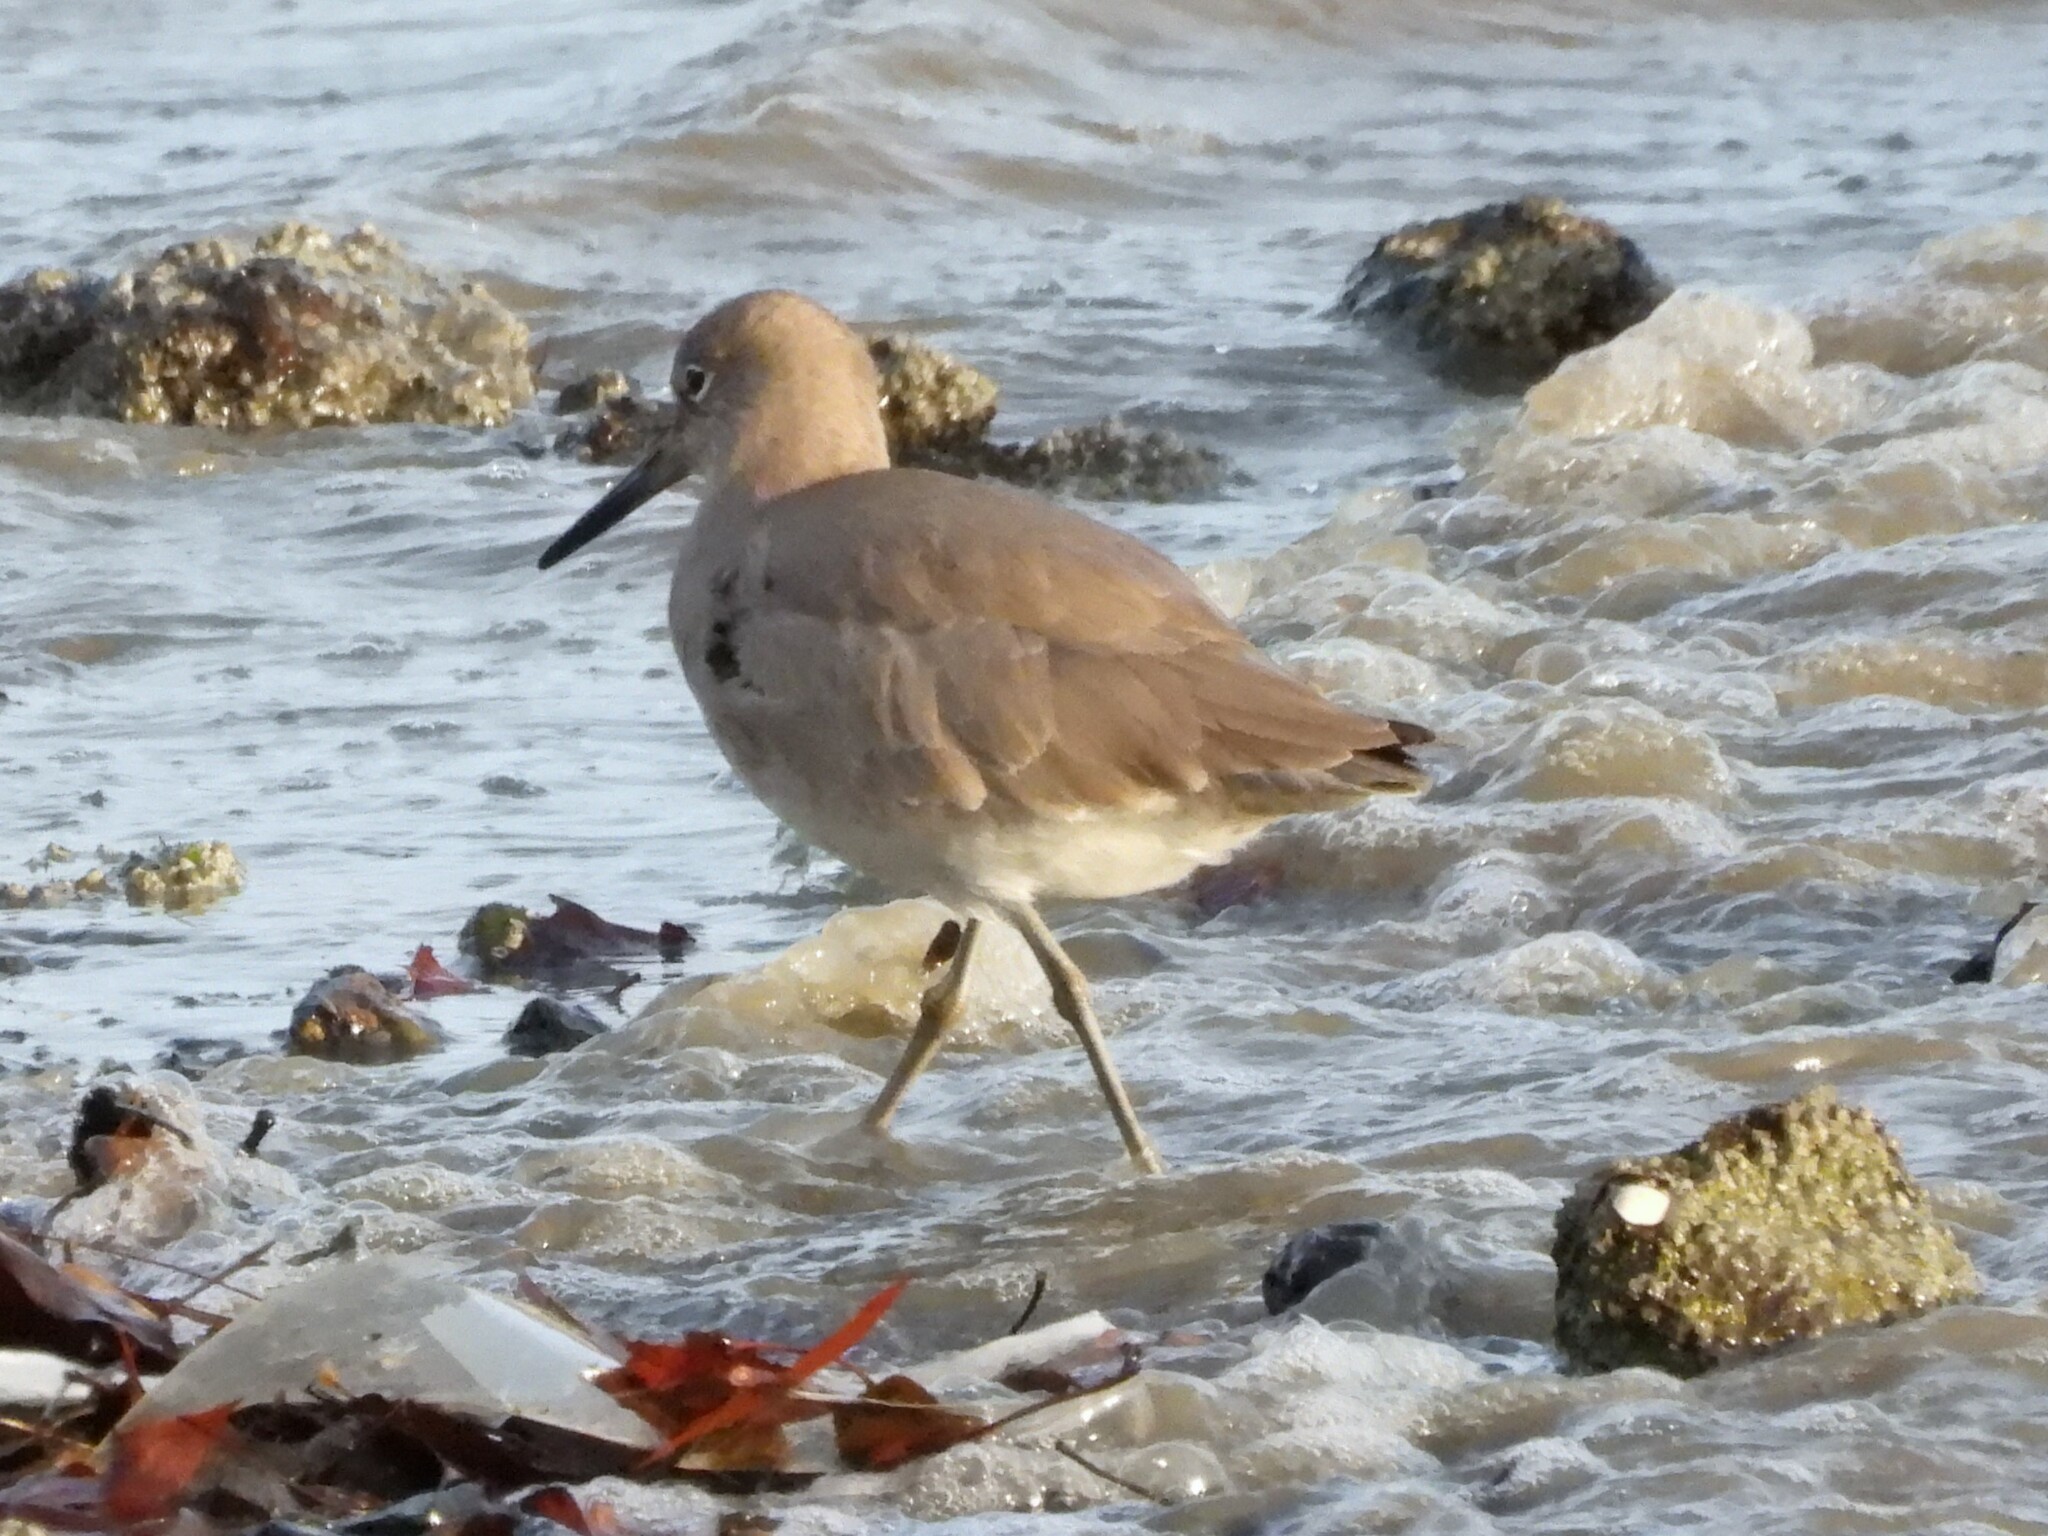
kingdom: Animalia
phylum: Chordata
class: Aves
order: Charadriiformes
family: Scolopacidae
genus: Tringa
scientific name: Tringa semipalmata
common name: Willet
